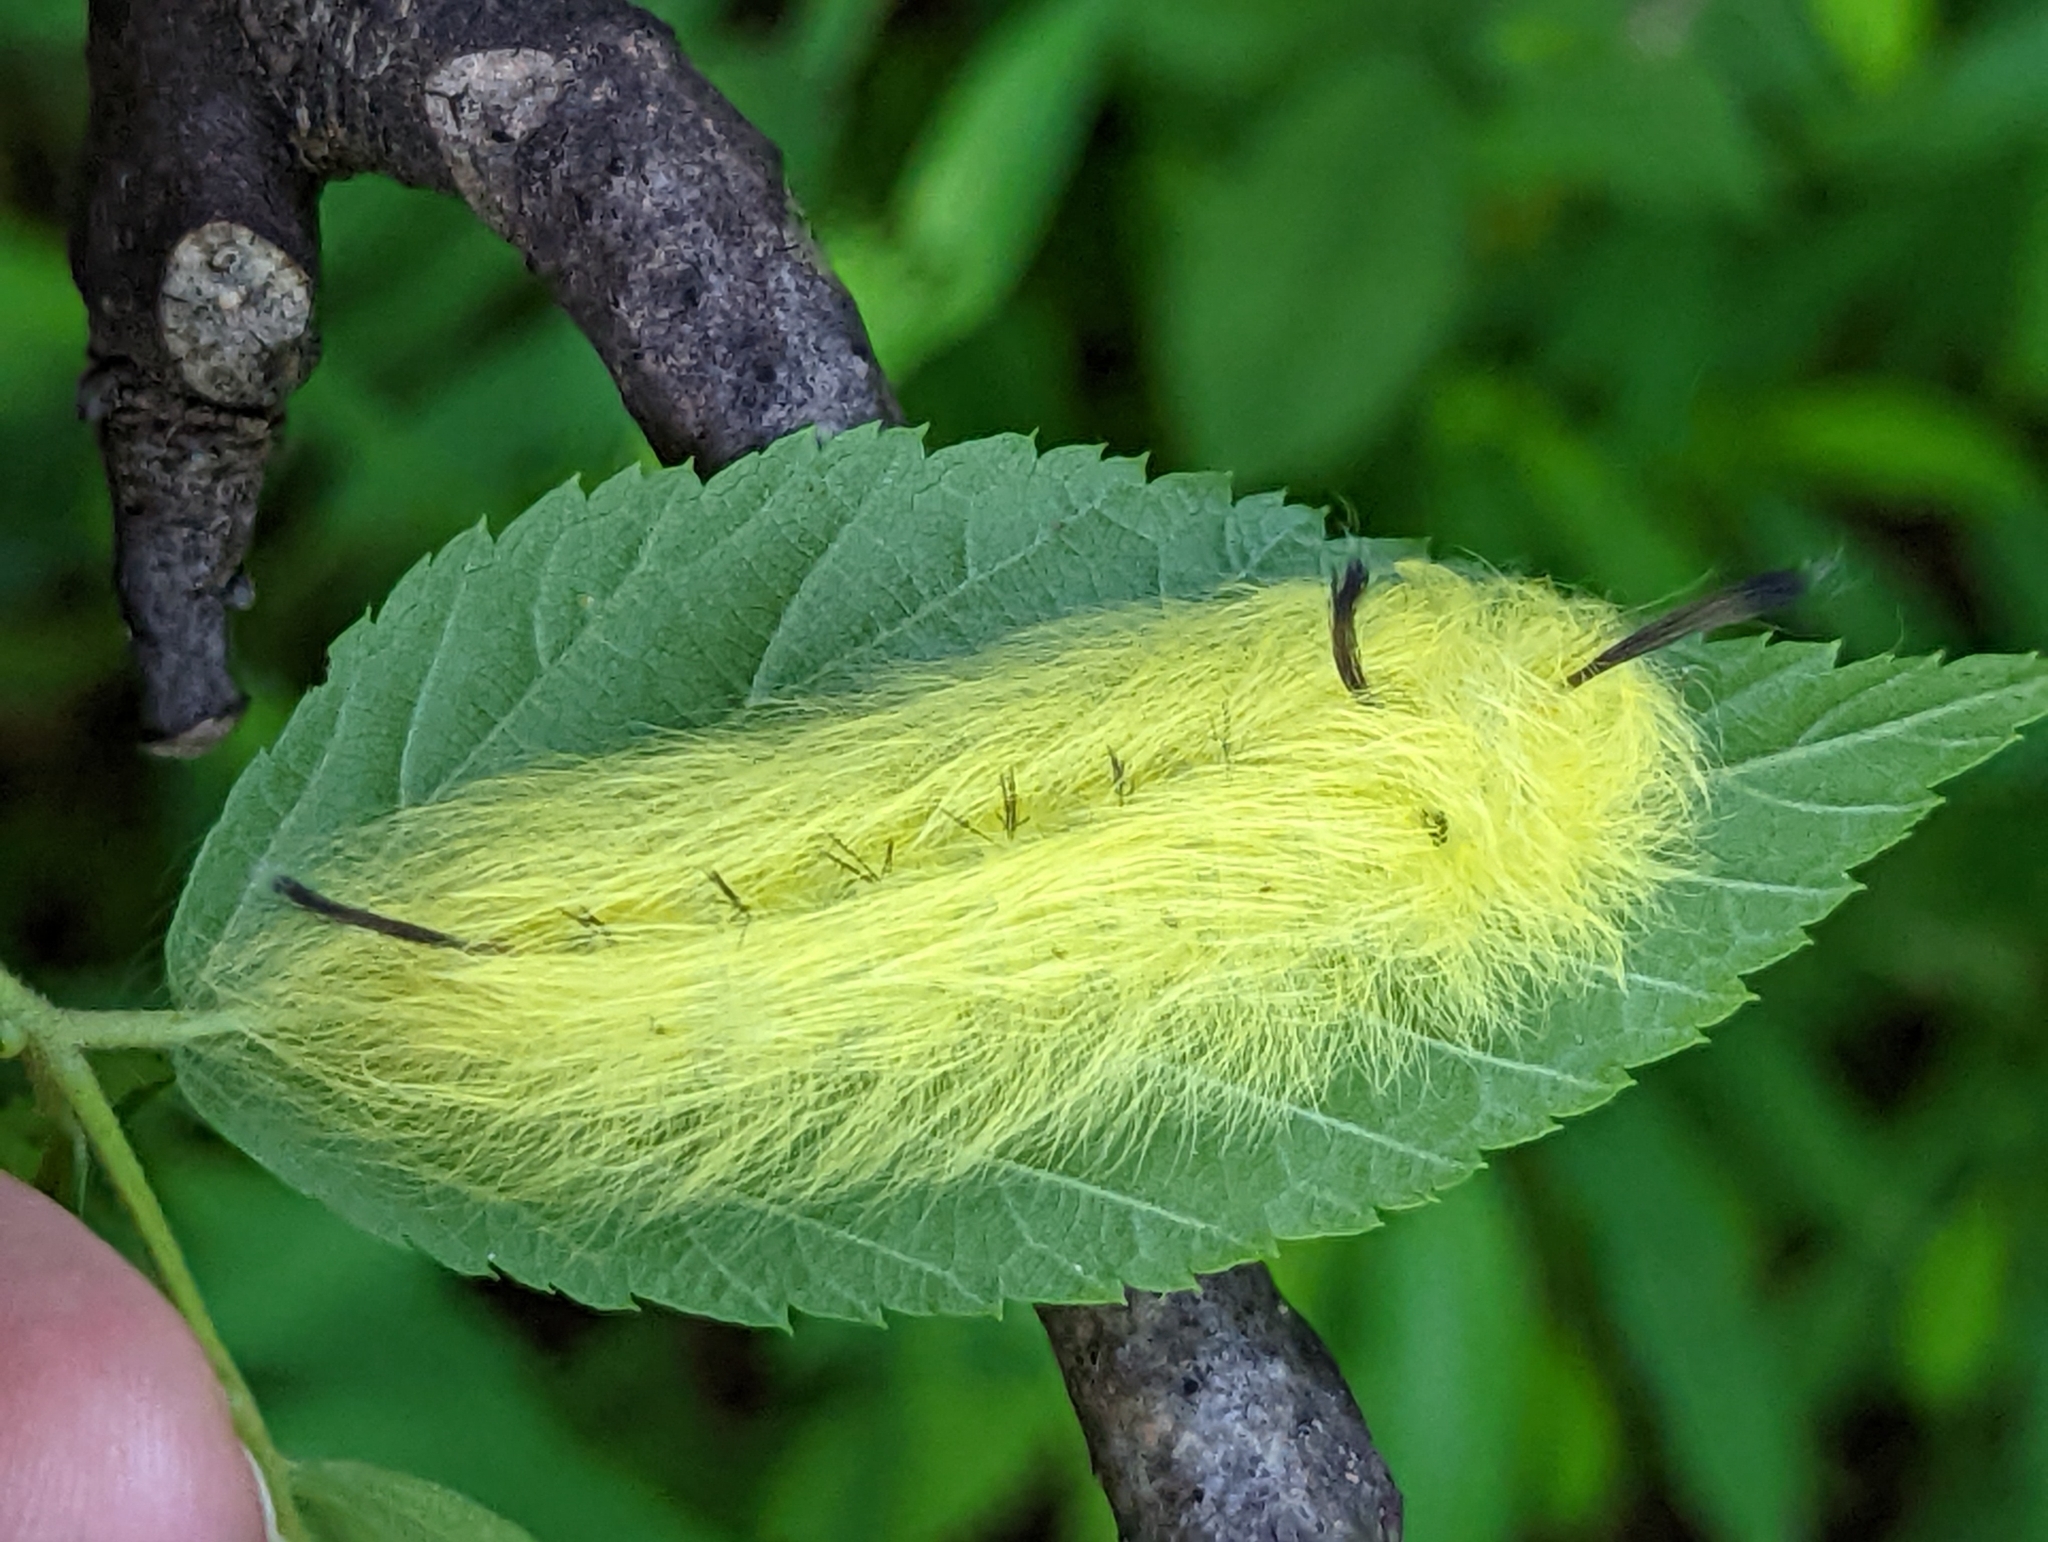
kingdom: Animalia
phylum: Arthropoda
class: Insecta
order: Lepidoptera
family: Apatelodidae
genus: Hygrochroa
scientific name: Hygrochroa Apatelodes torrefacta
